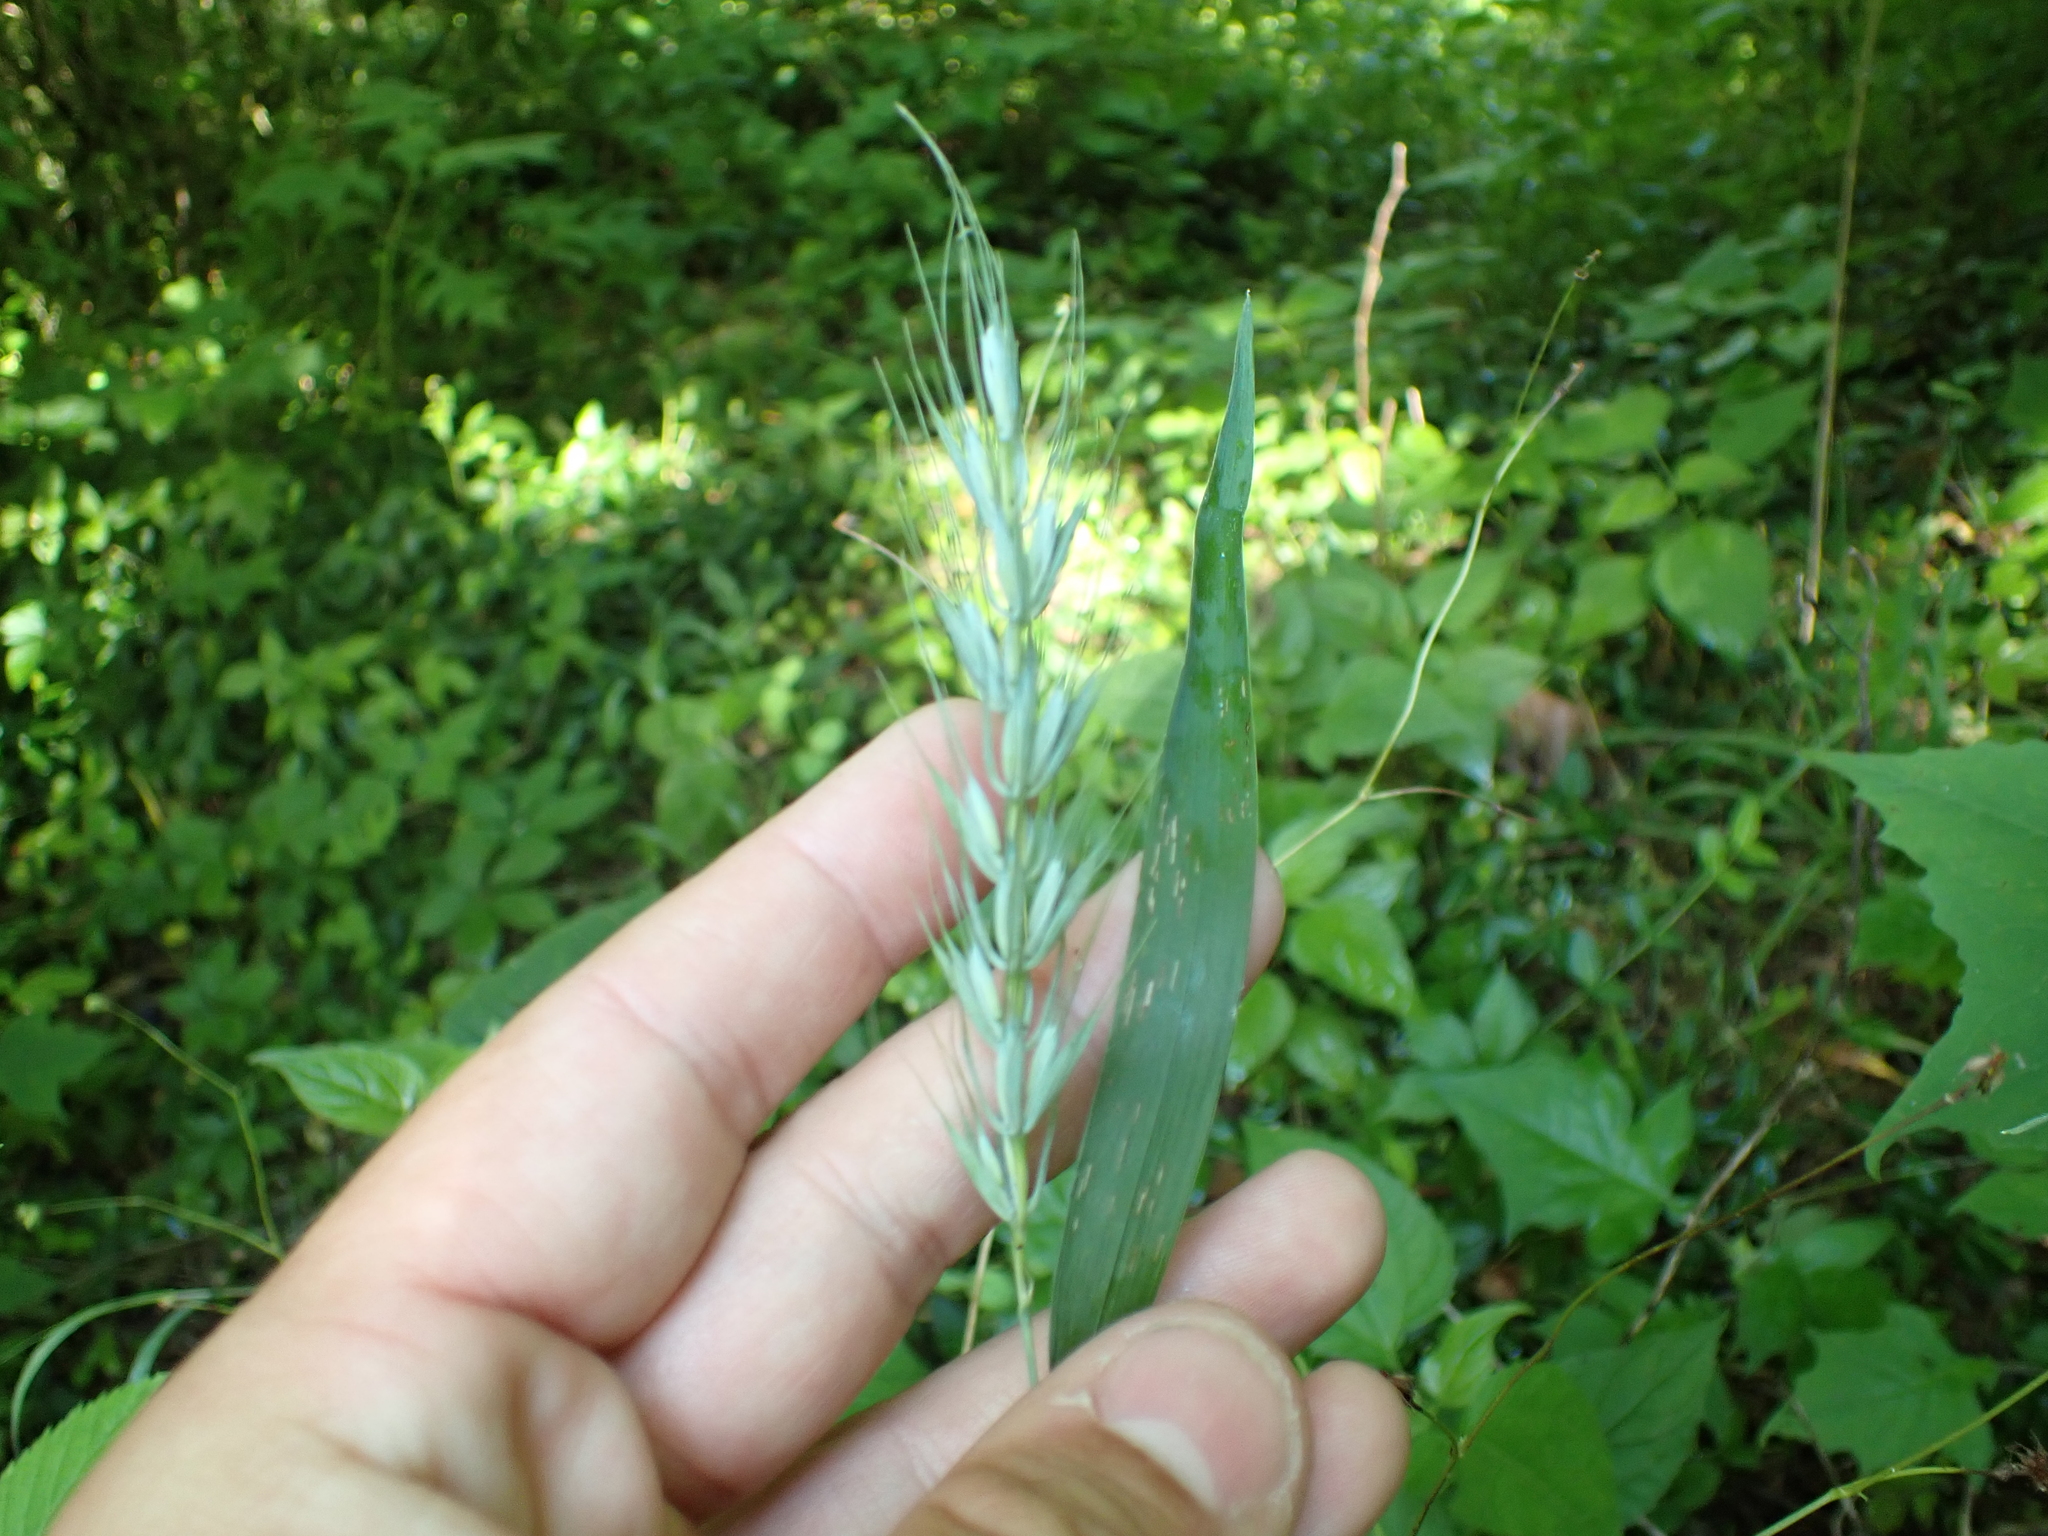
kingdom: Plantae
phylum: Tracheophyta
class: Liliopsida
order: Poales
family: Poaceae
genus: Elymus
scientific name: Elymus macgregorii
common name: Early wild rye
